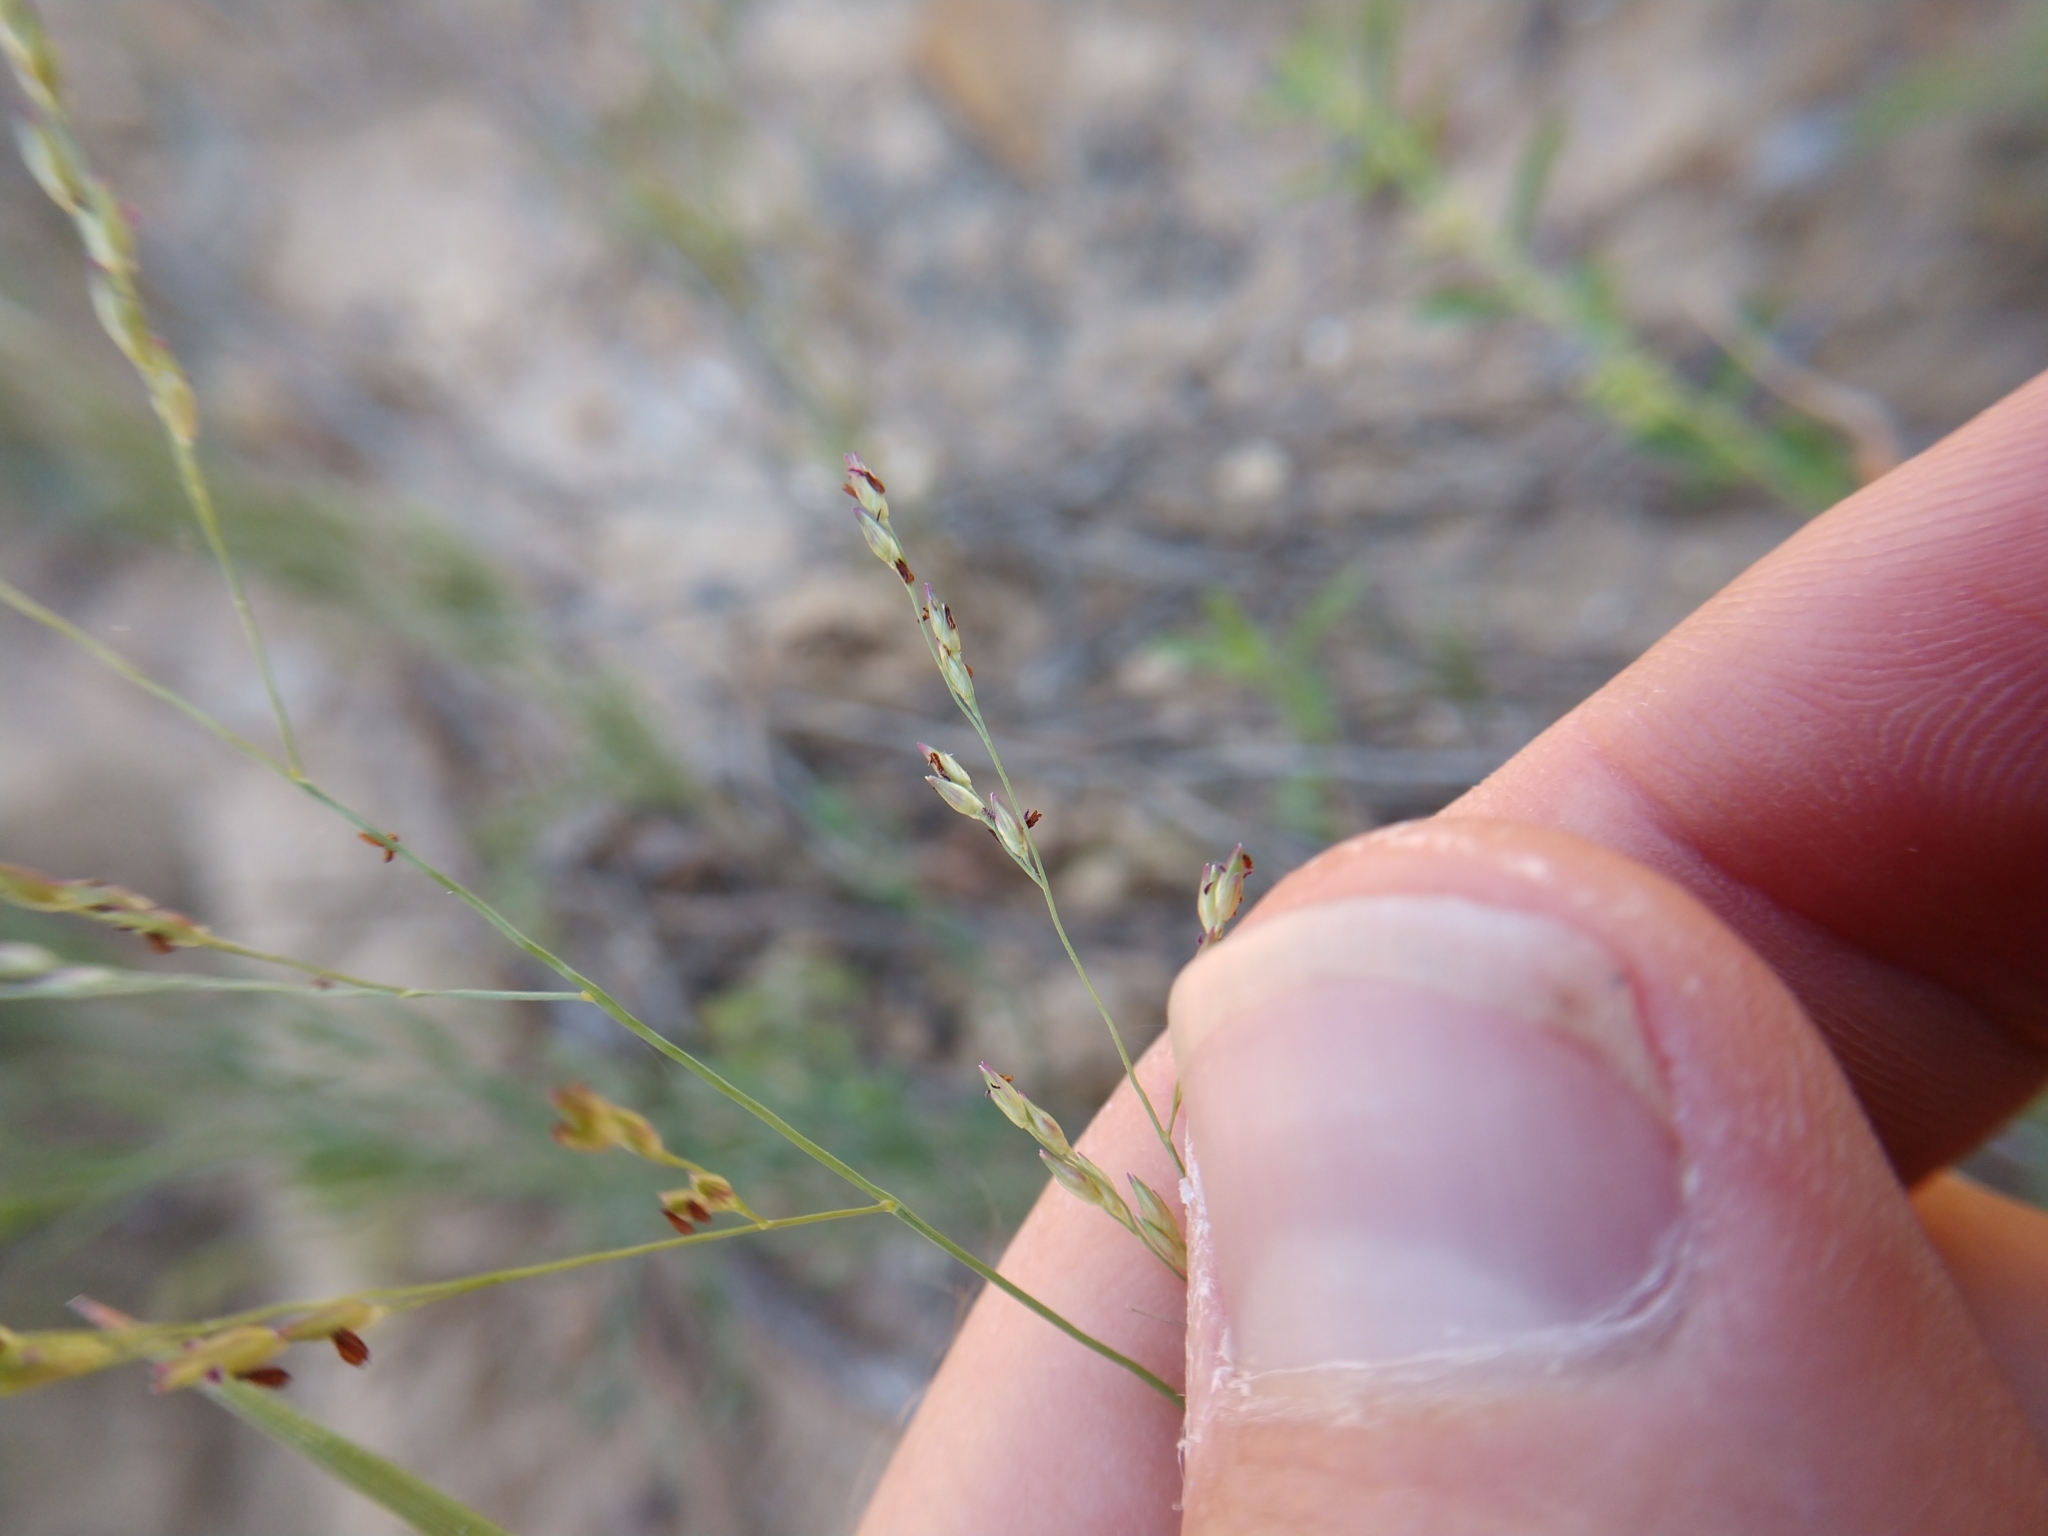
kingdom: Plantae
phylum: Tracheophyta
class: Liliopsida
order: Poales
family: Poaceae
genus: Panicum
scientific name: Panicum hallii
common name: Hall's witchgrass
